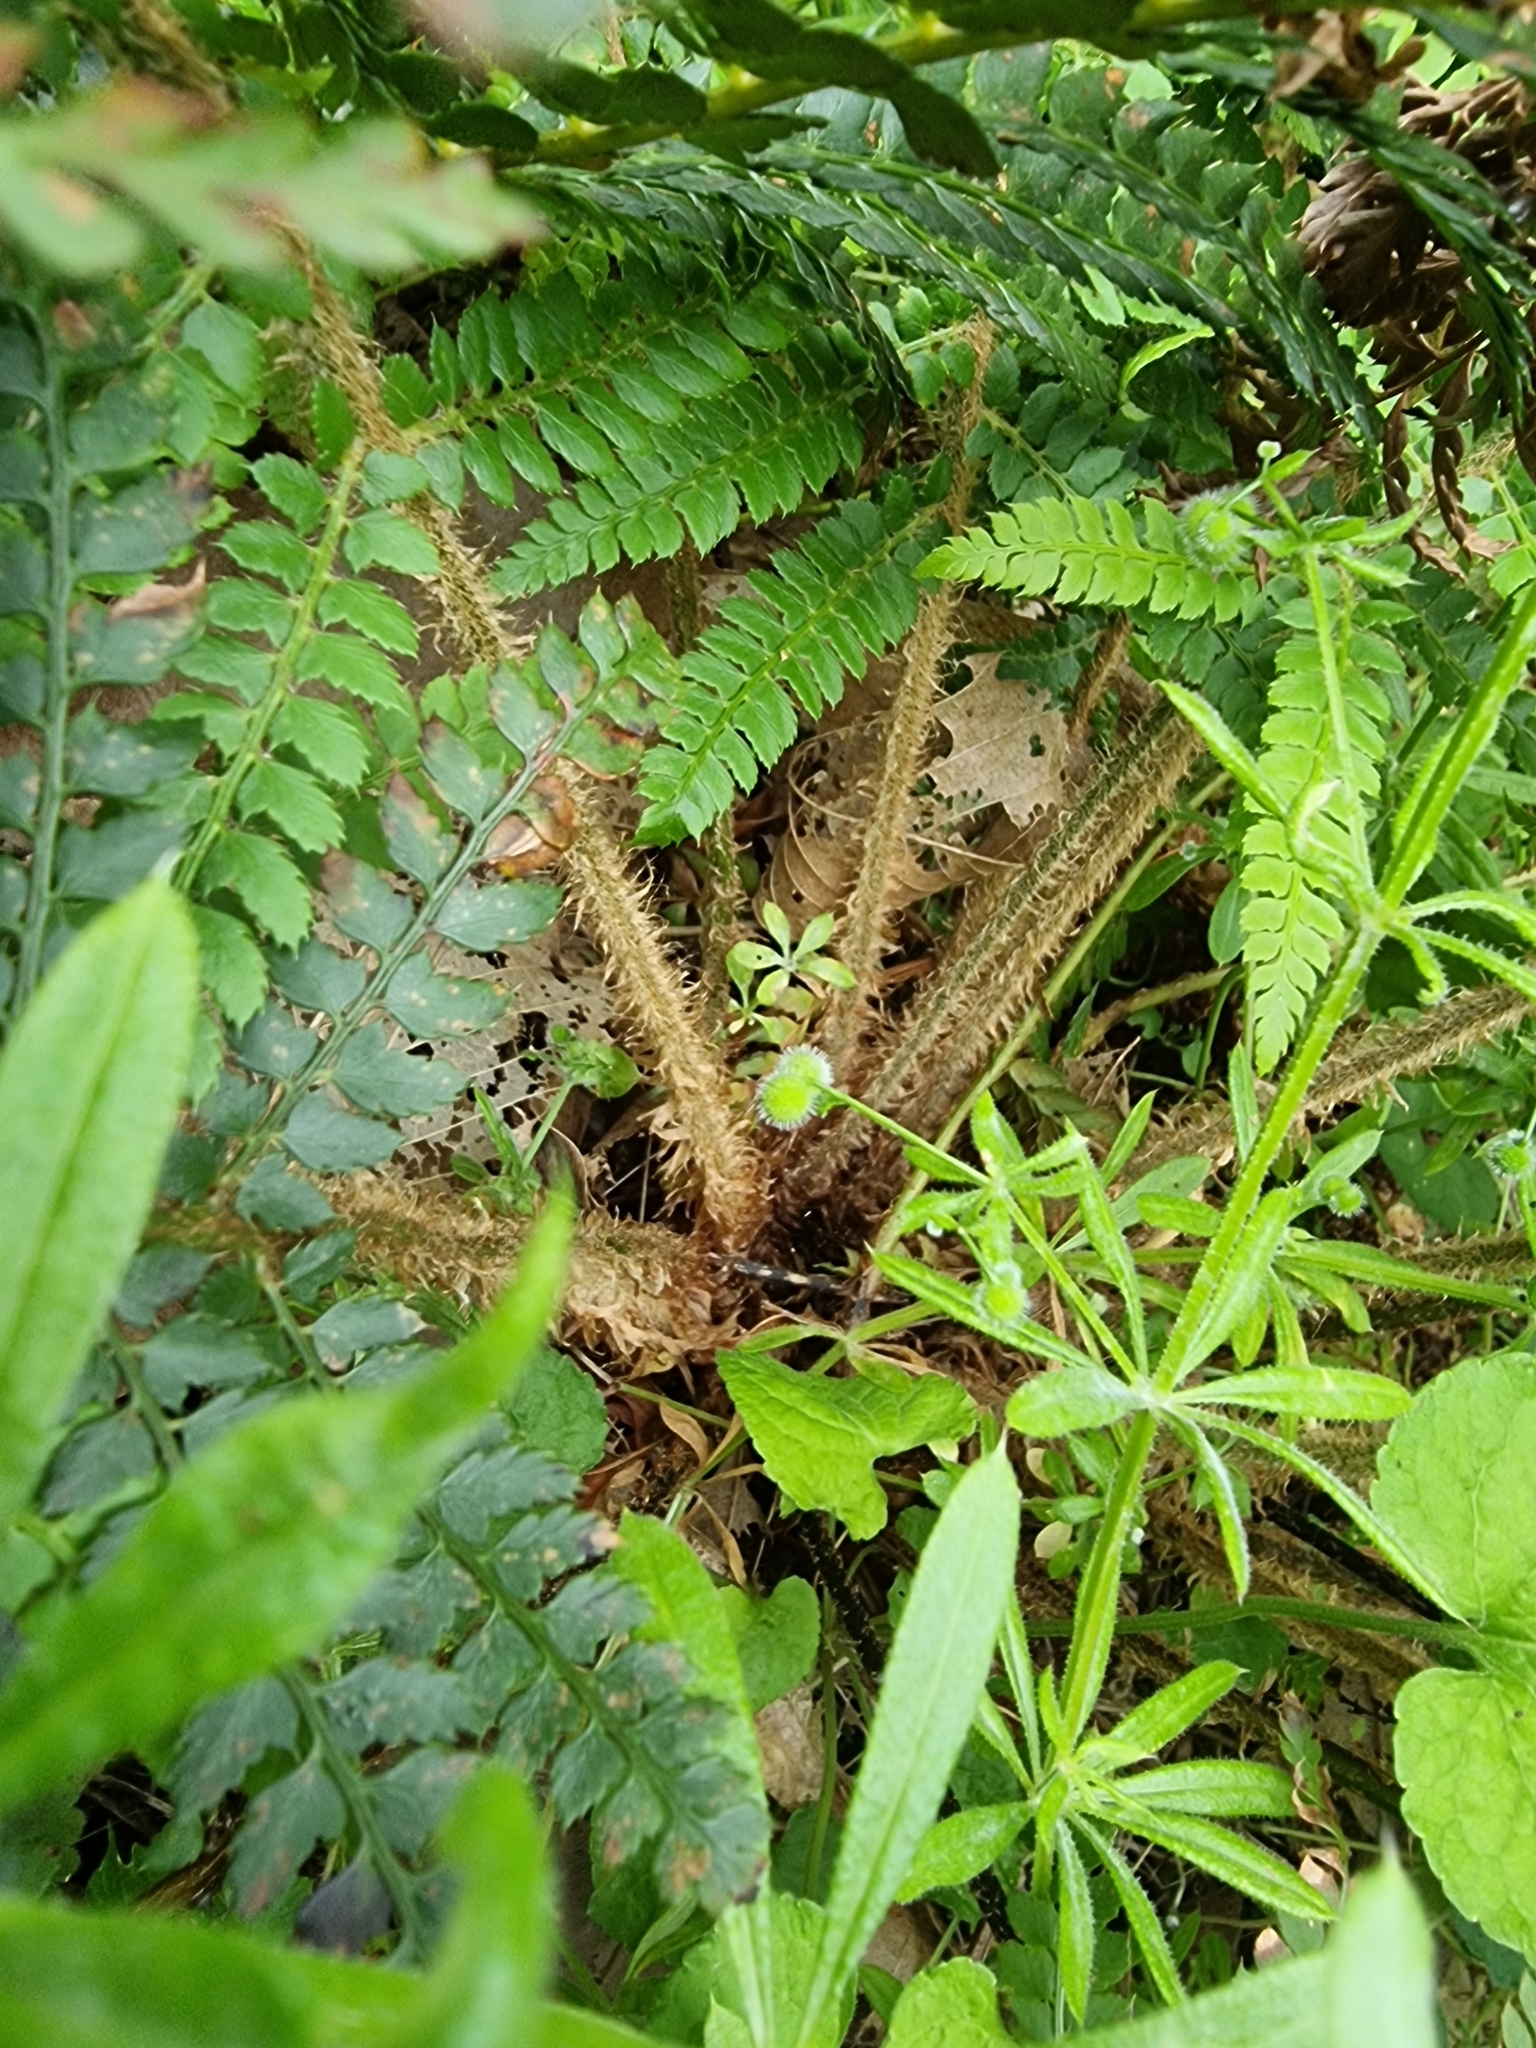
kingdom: Plantae
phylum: Tracheophyta
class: Polypodiopsida
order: Polypodiales
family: Dryopteridaceae
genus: Polystichum
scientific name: Polystichum setiferum
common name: Soft shield-fern
